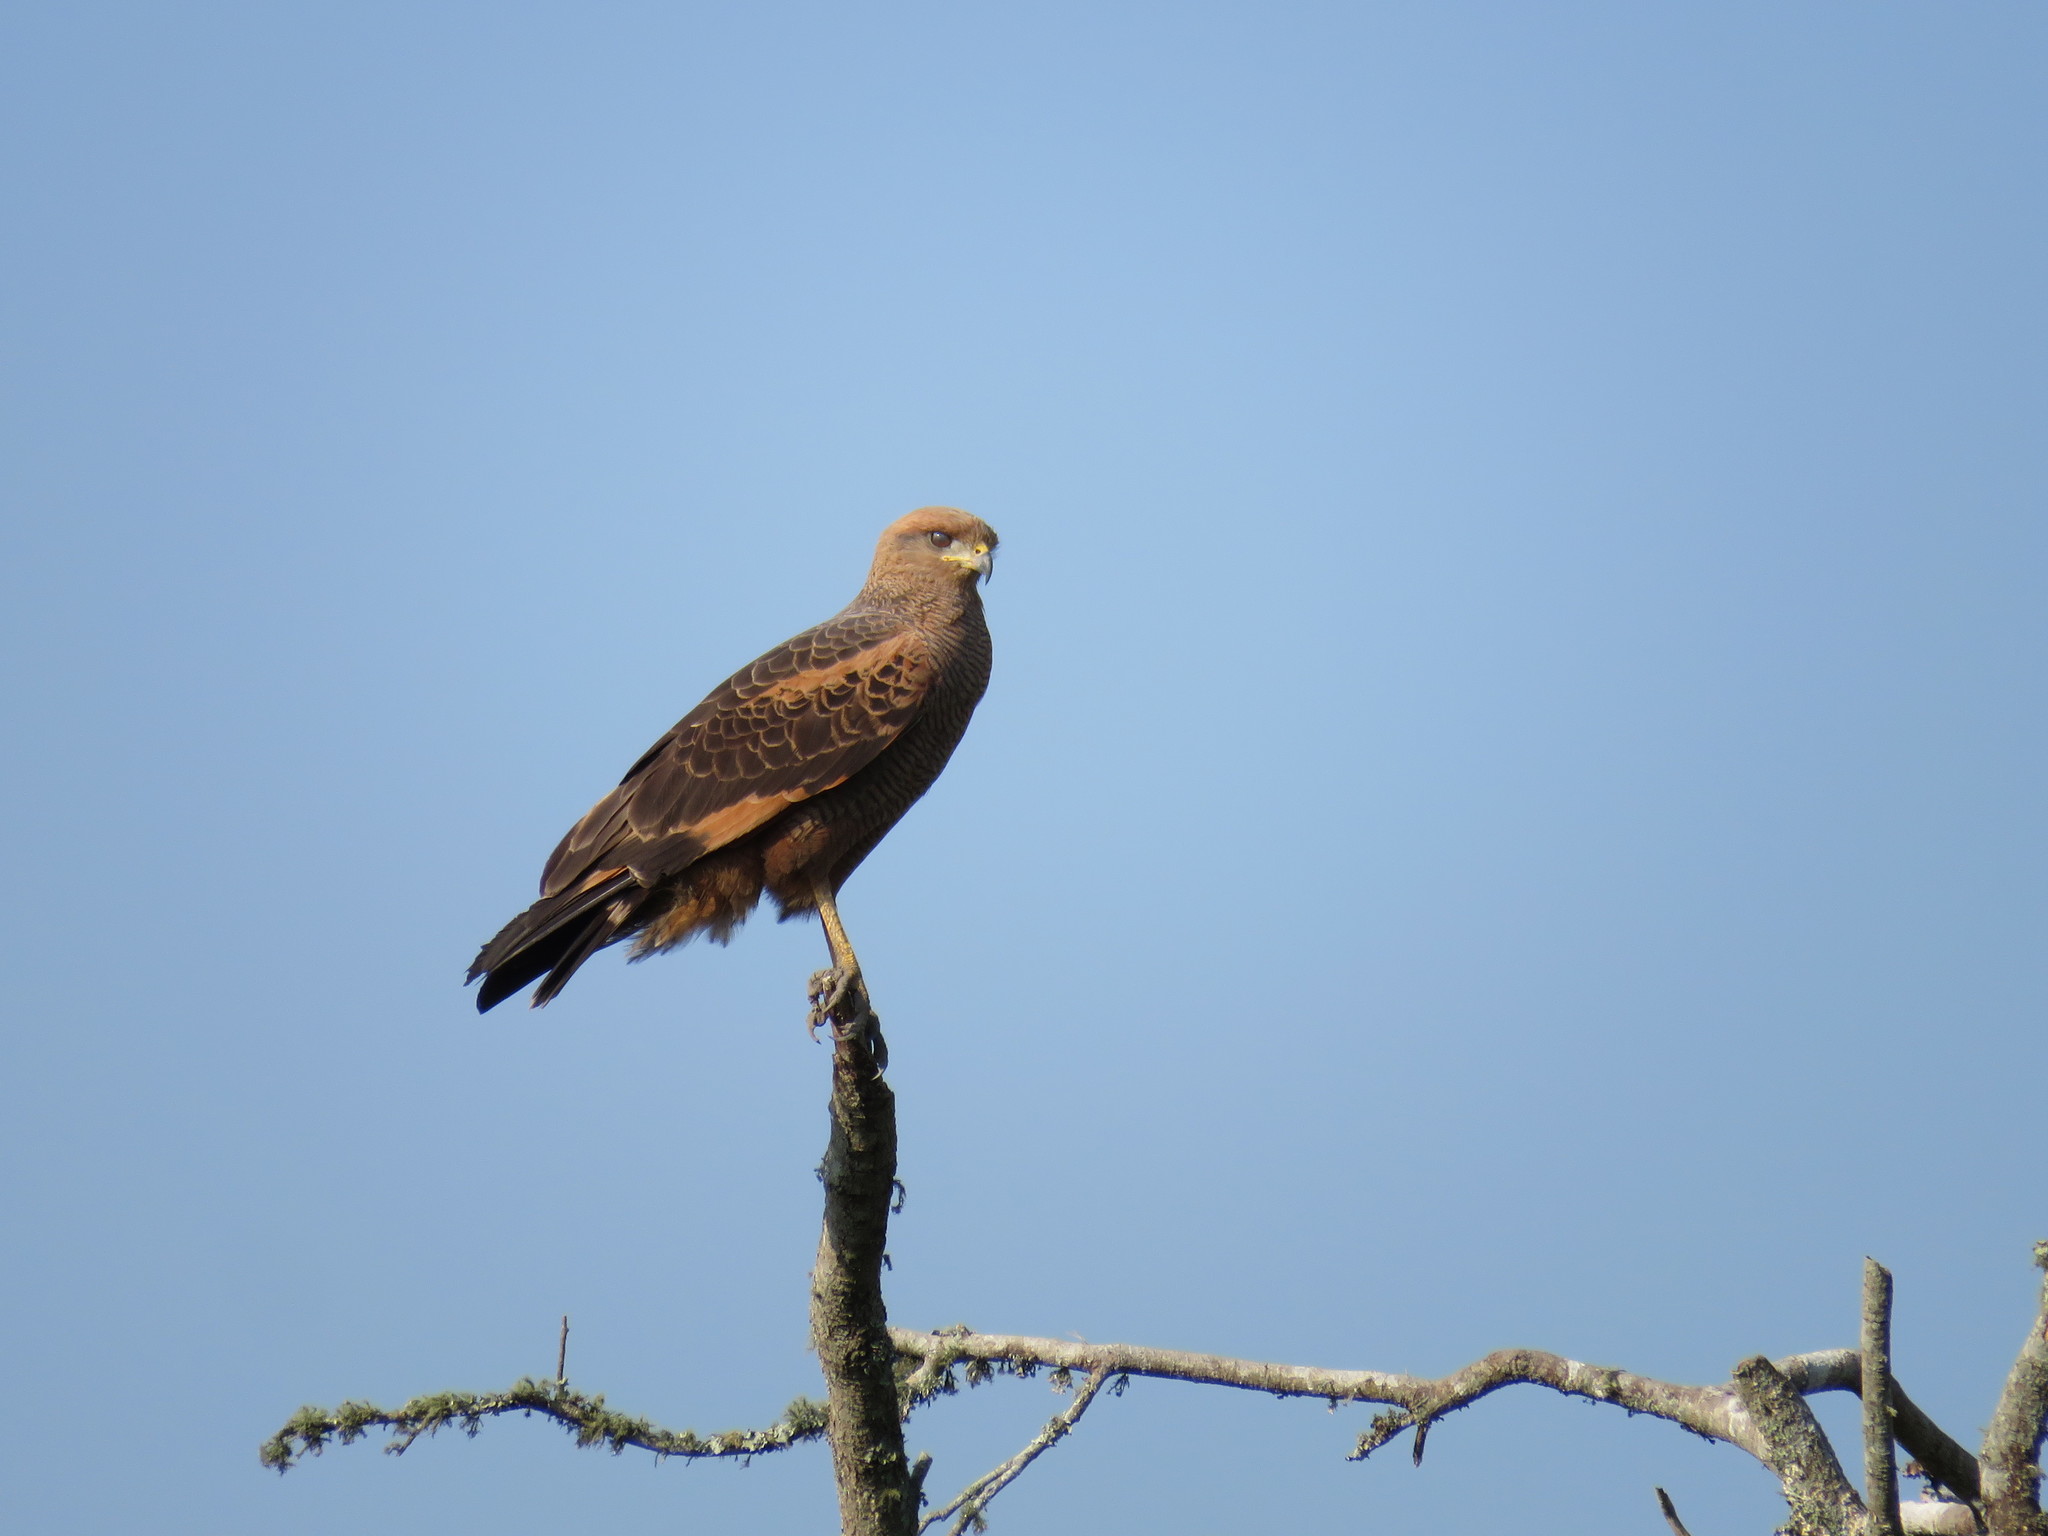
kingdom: Animalia
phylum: Chordata
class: Aves
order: Accipitriformes
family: Accipitridae
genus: Buteogallus
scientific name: Buteogallus meridionalis
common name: Savanna hawk
